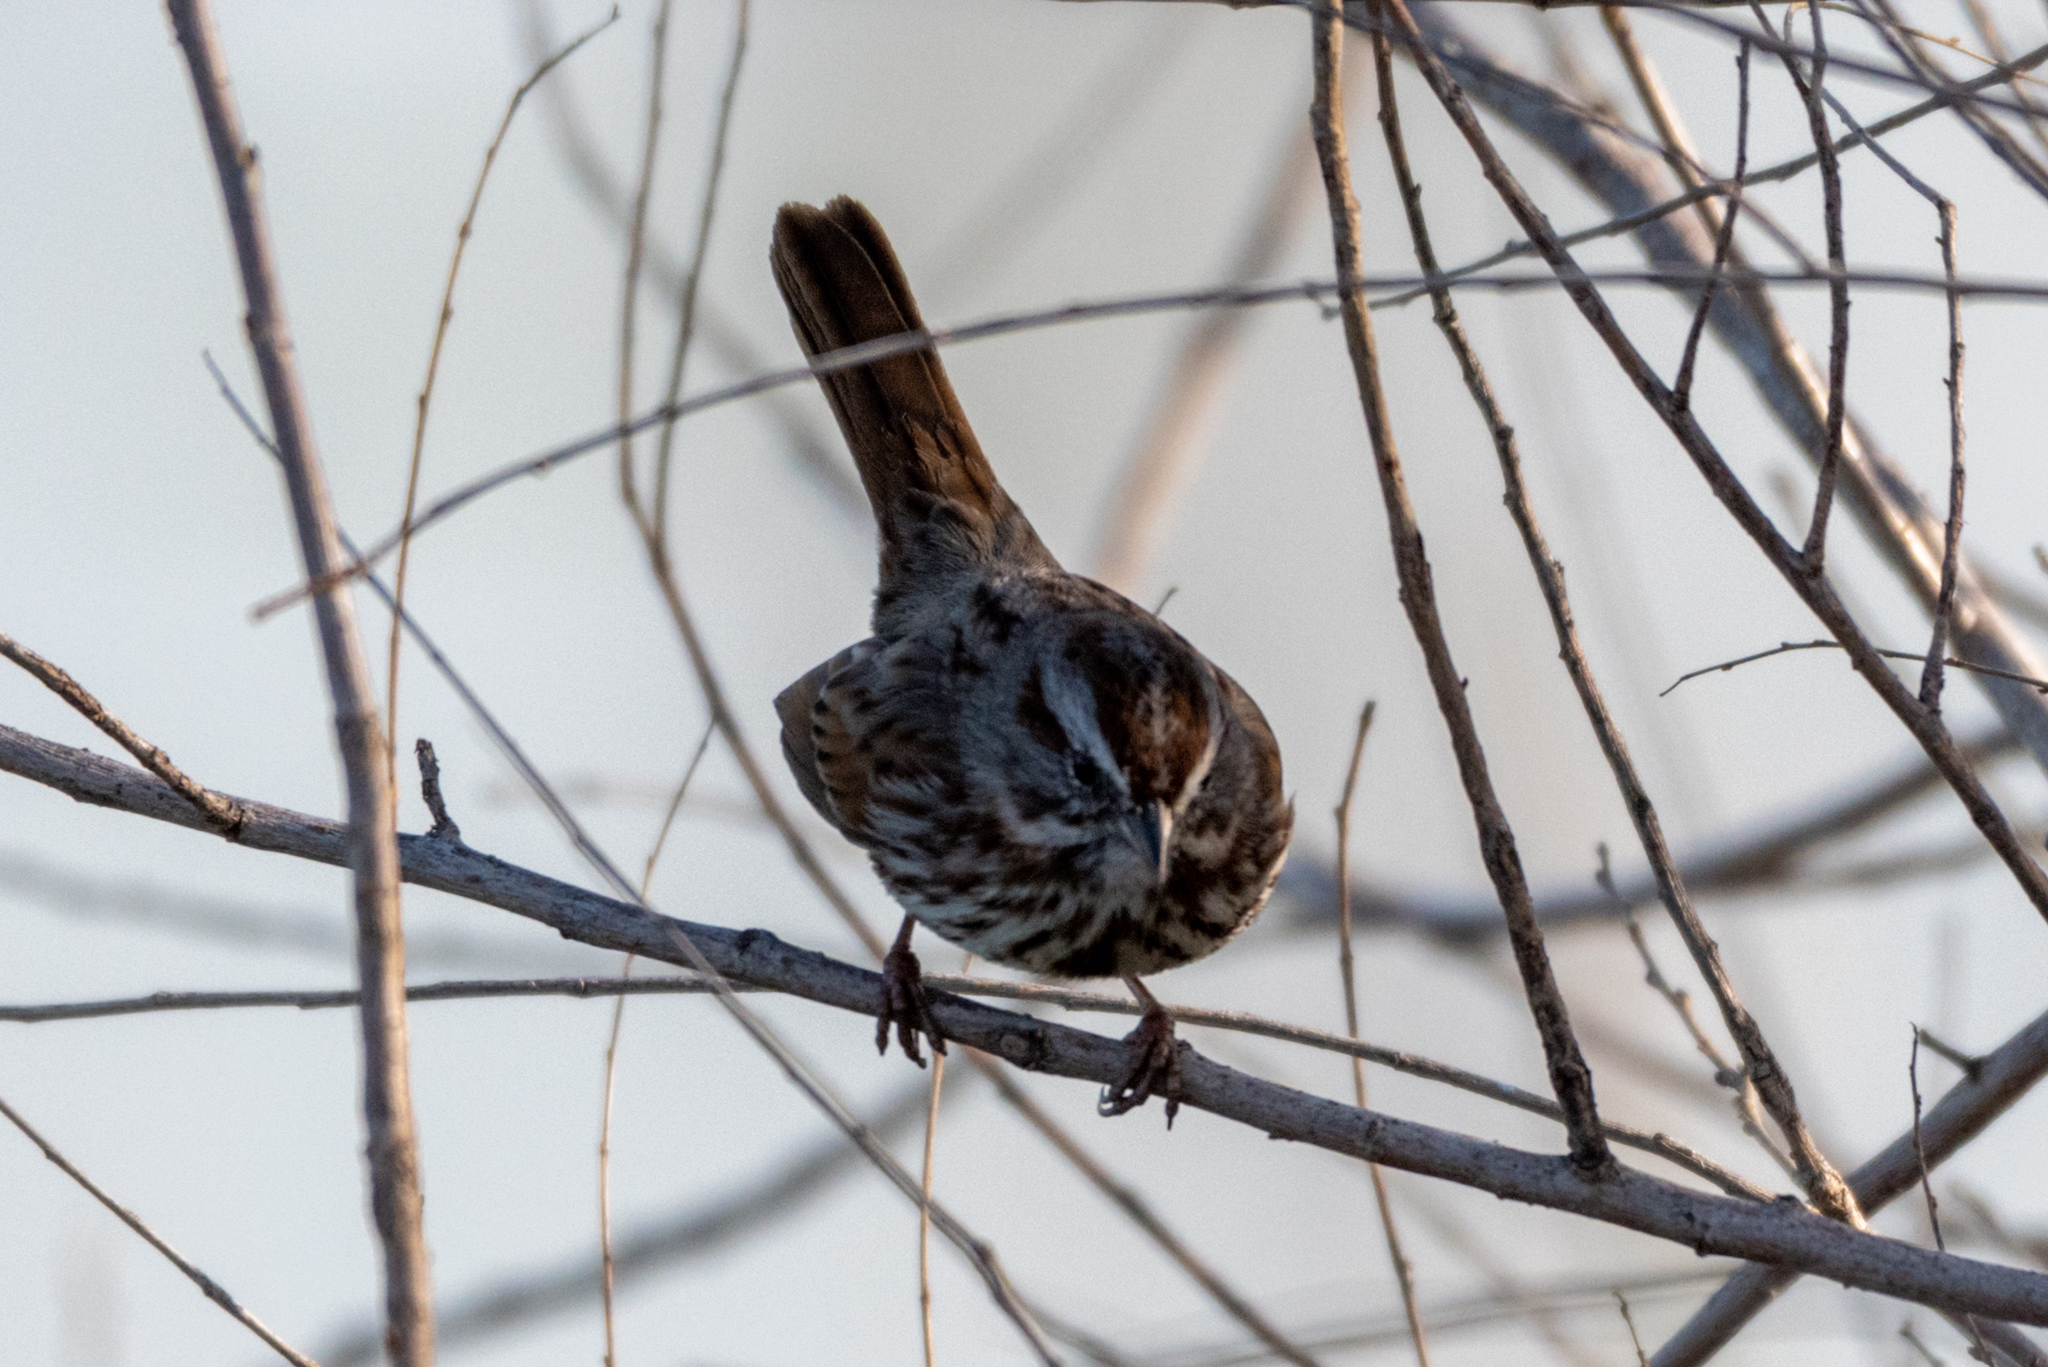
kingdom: Animalia
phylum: Chordata
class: Aves
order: Passeriformes
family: Passerellidae
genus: Melospiza
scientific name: Melospiza melodia
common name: Song sparrow
